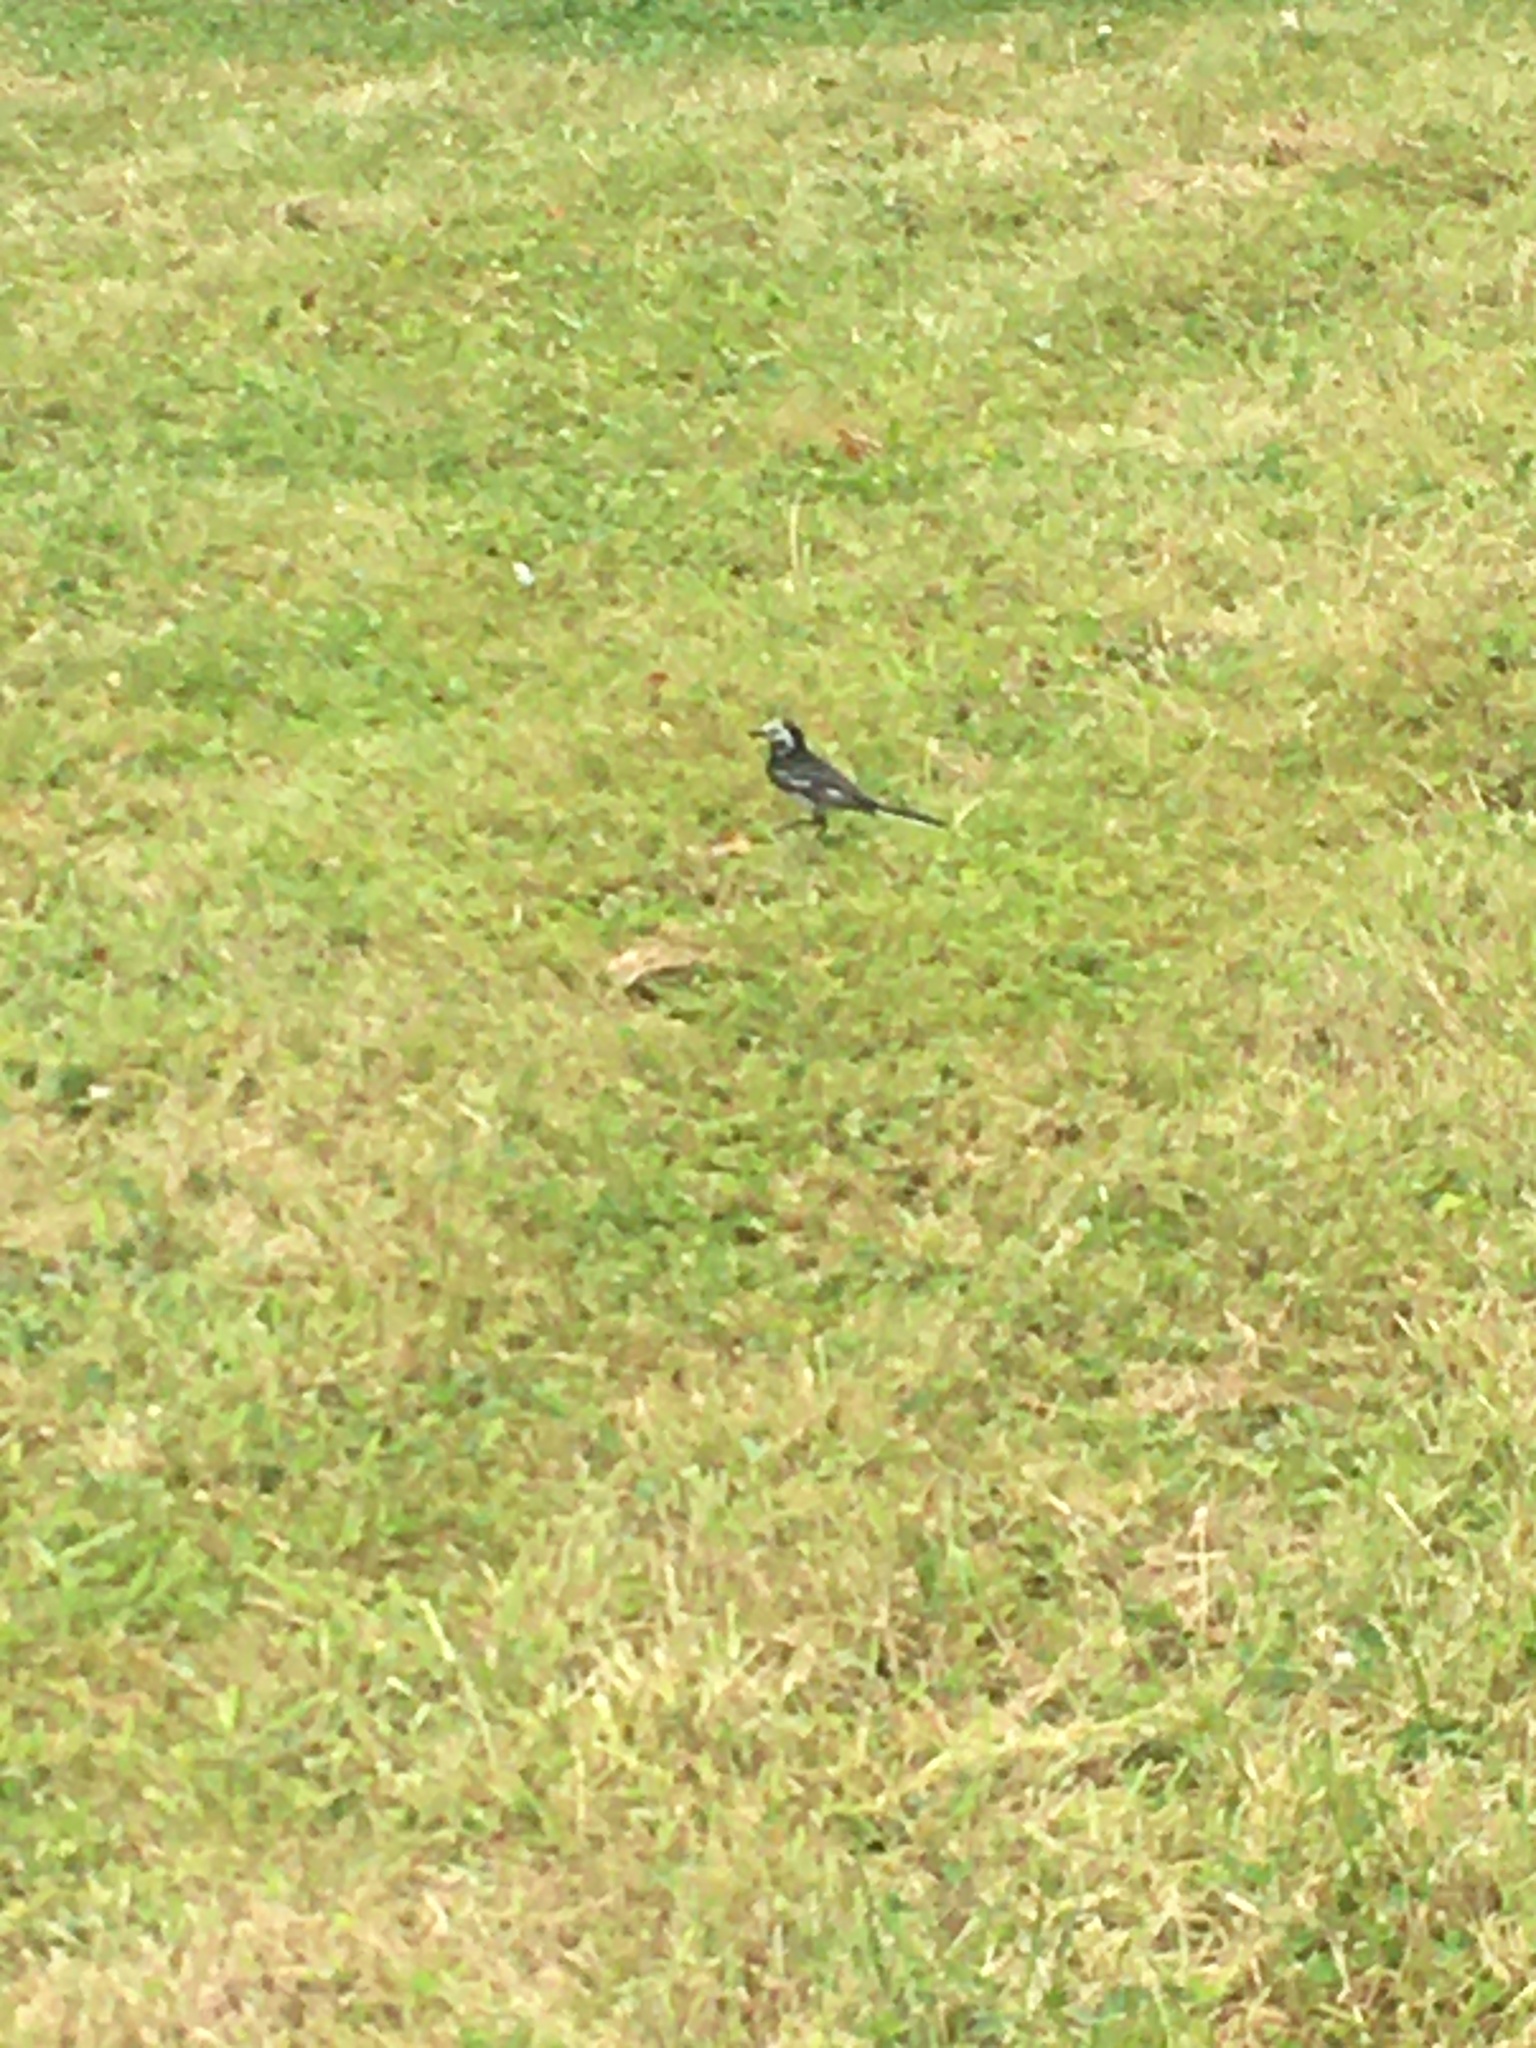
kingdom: Animalia
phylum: Chordata
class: Aves
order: Passeriformes
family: Motacillidae
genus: Motacilla
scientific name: Motacilla alba
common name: White wagtail
